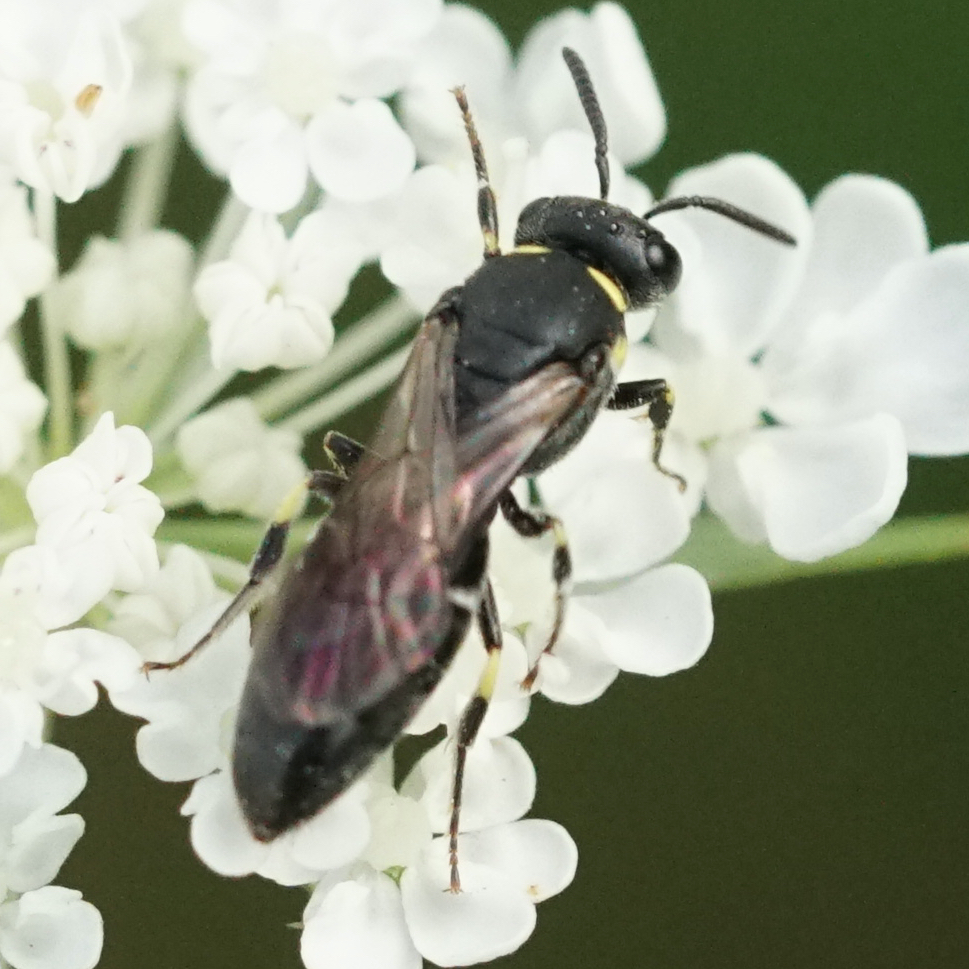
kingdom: Animalia
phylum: Arthropoda
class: Insecta
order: Hymenoptera
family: Colletidae
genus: Hylaeus
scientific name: Hylaeus modestus
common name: Yellow-faced bee
